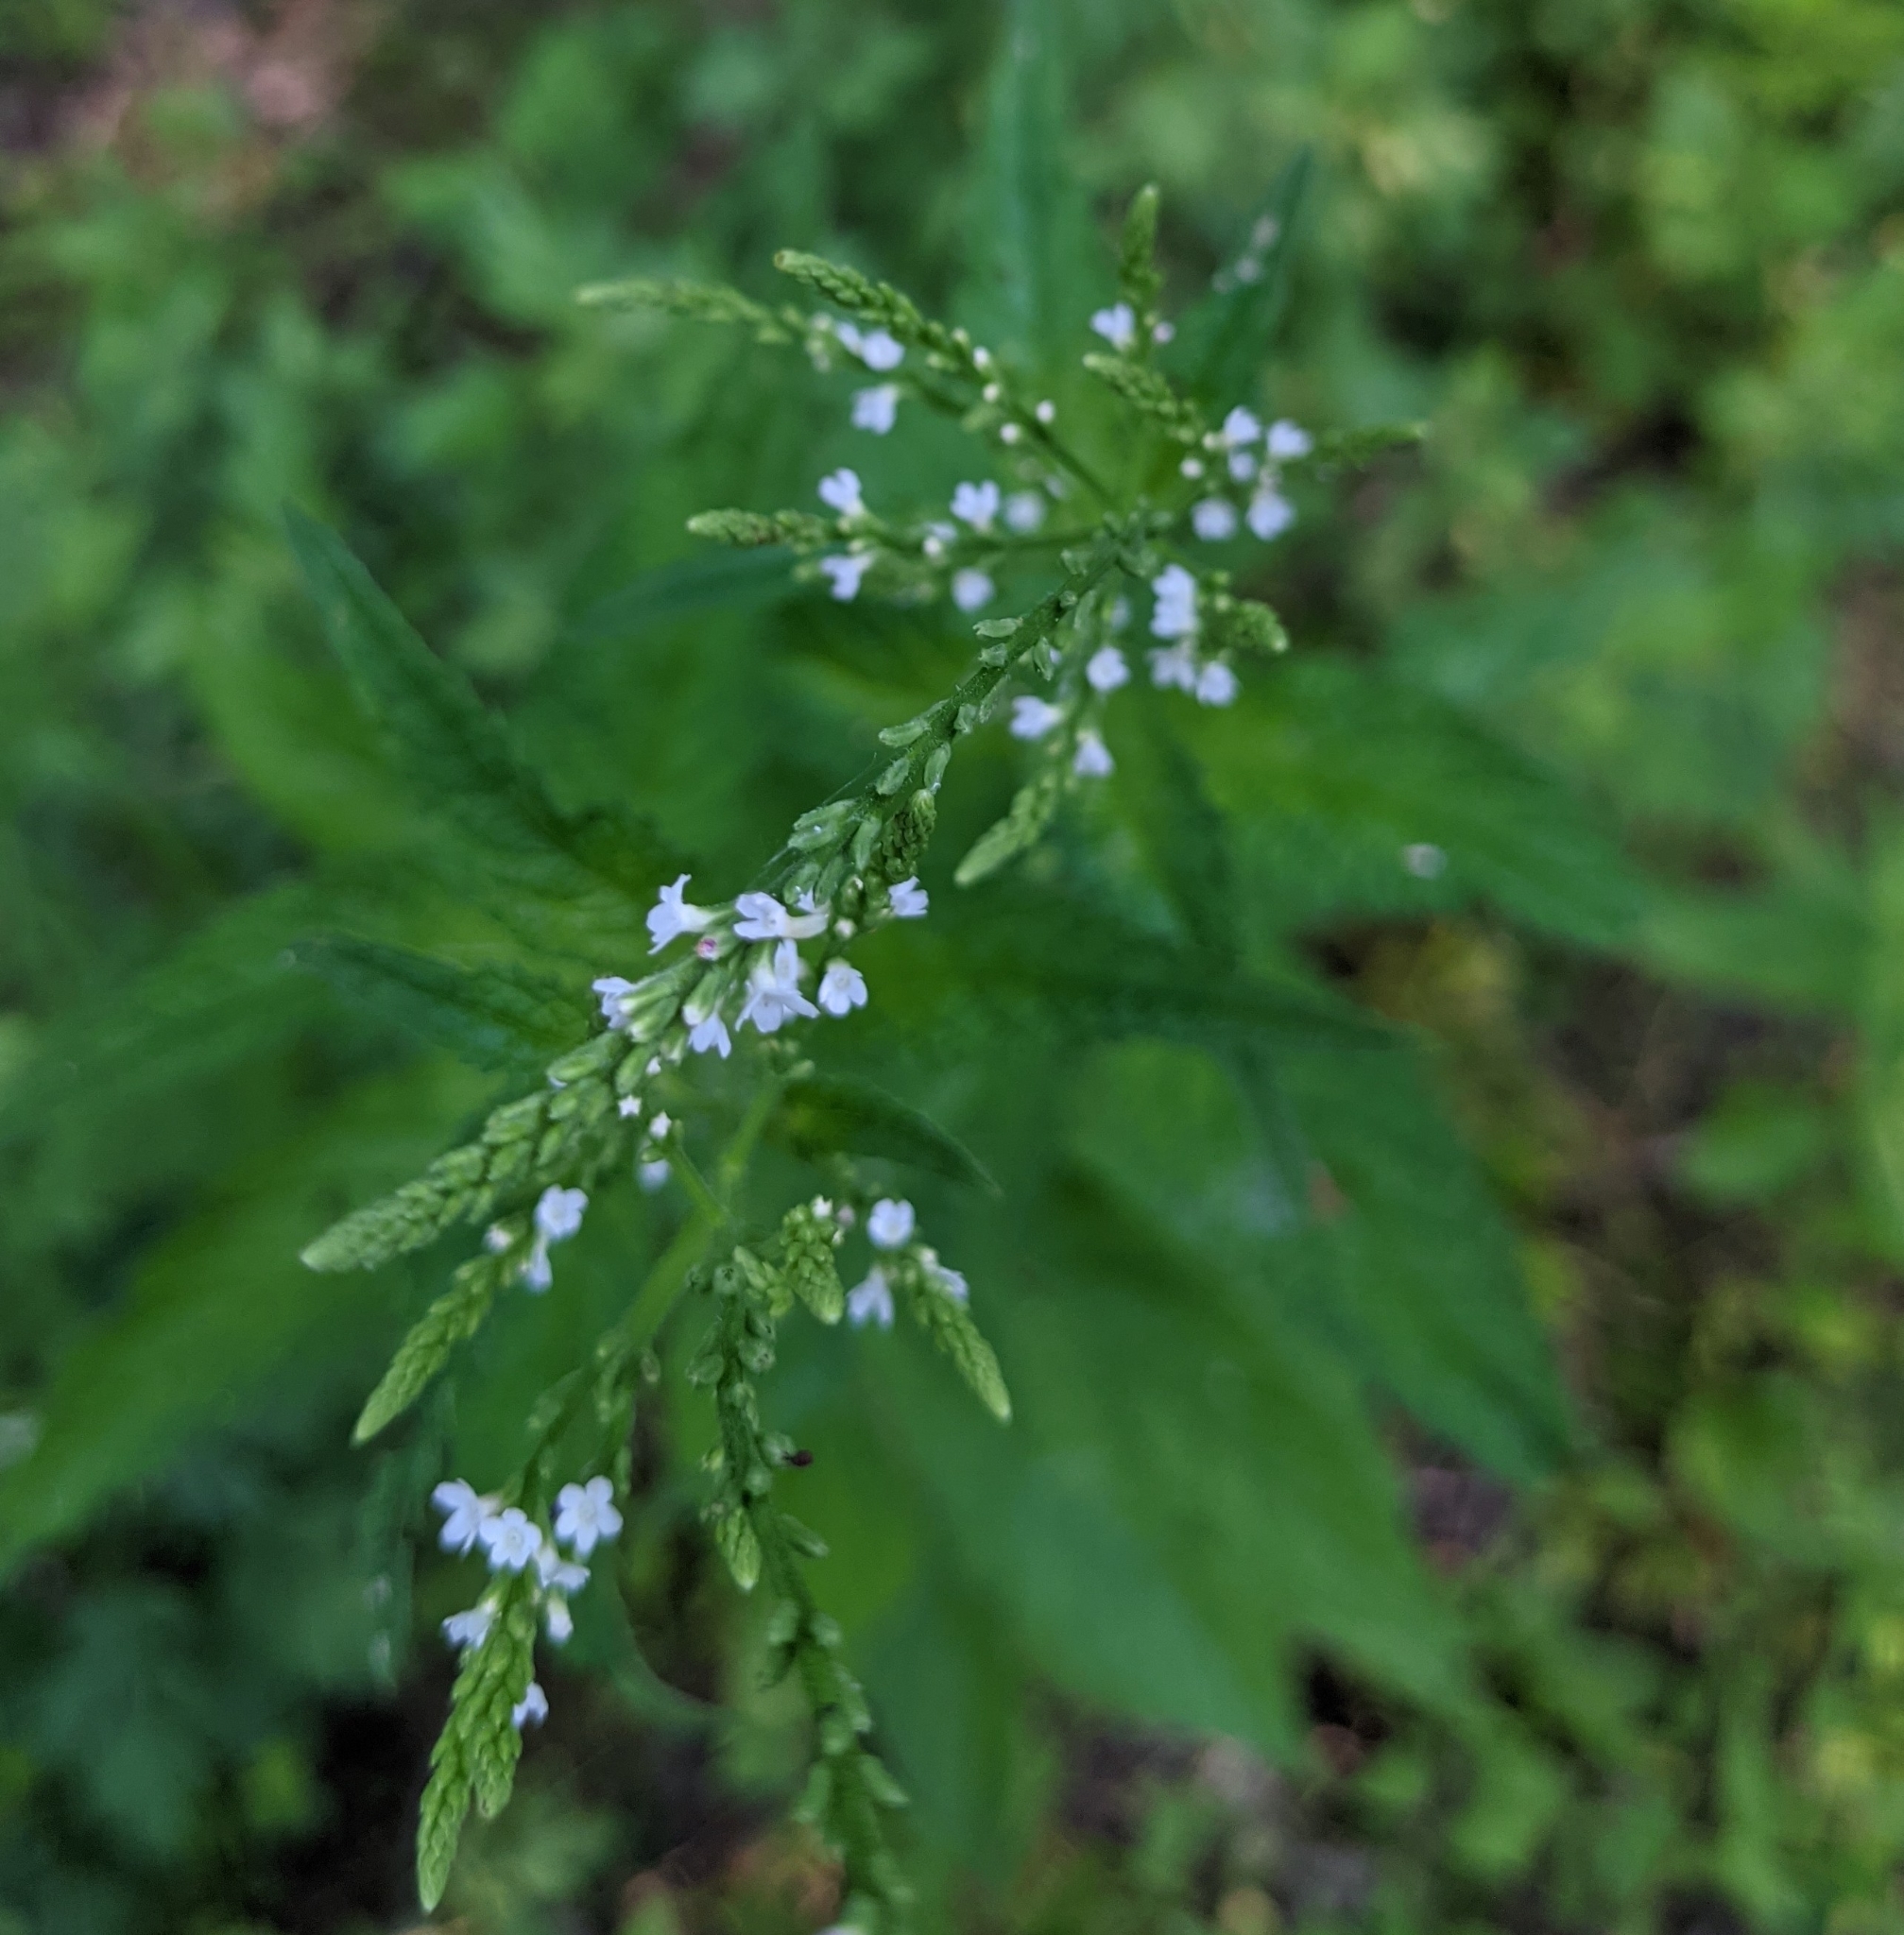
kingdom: Plantae
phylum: Tracheophyta
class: Magnoliopsida
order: Lamiales
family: Verbenaceae
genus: Verbena
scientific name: Verbena urticifolia
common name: Nettle-leaved vervain
